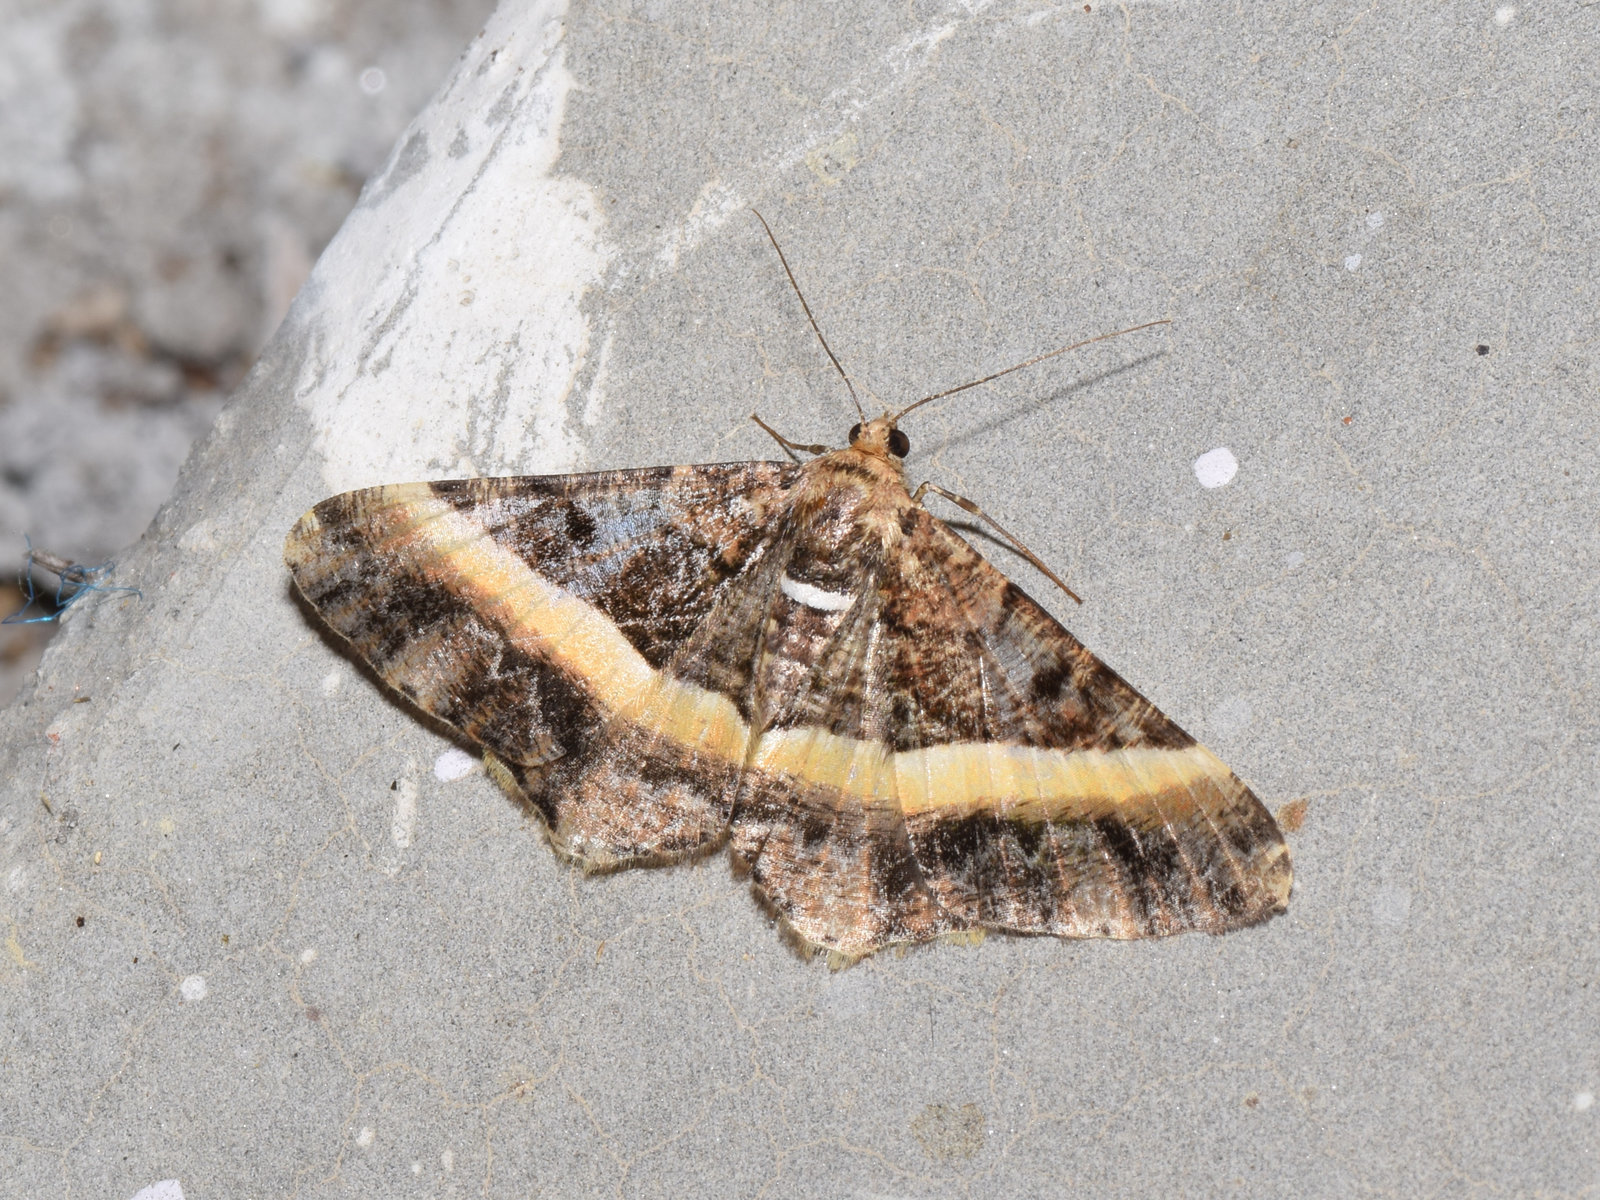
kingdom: Animalia
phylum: Arthropoda
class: Insecta
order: Lepidoptera
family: Geometridae
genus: Harutalcis
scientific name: Harutalcis vialis
